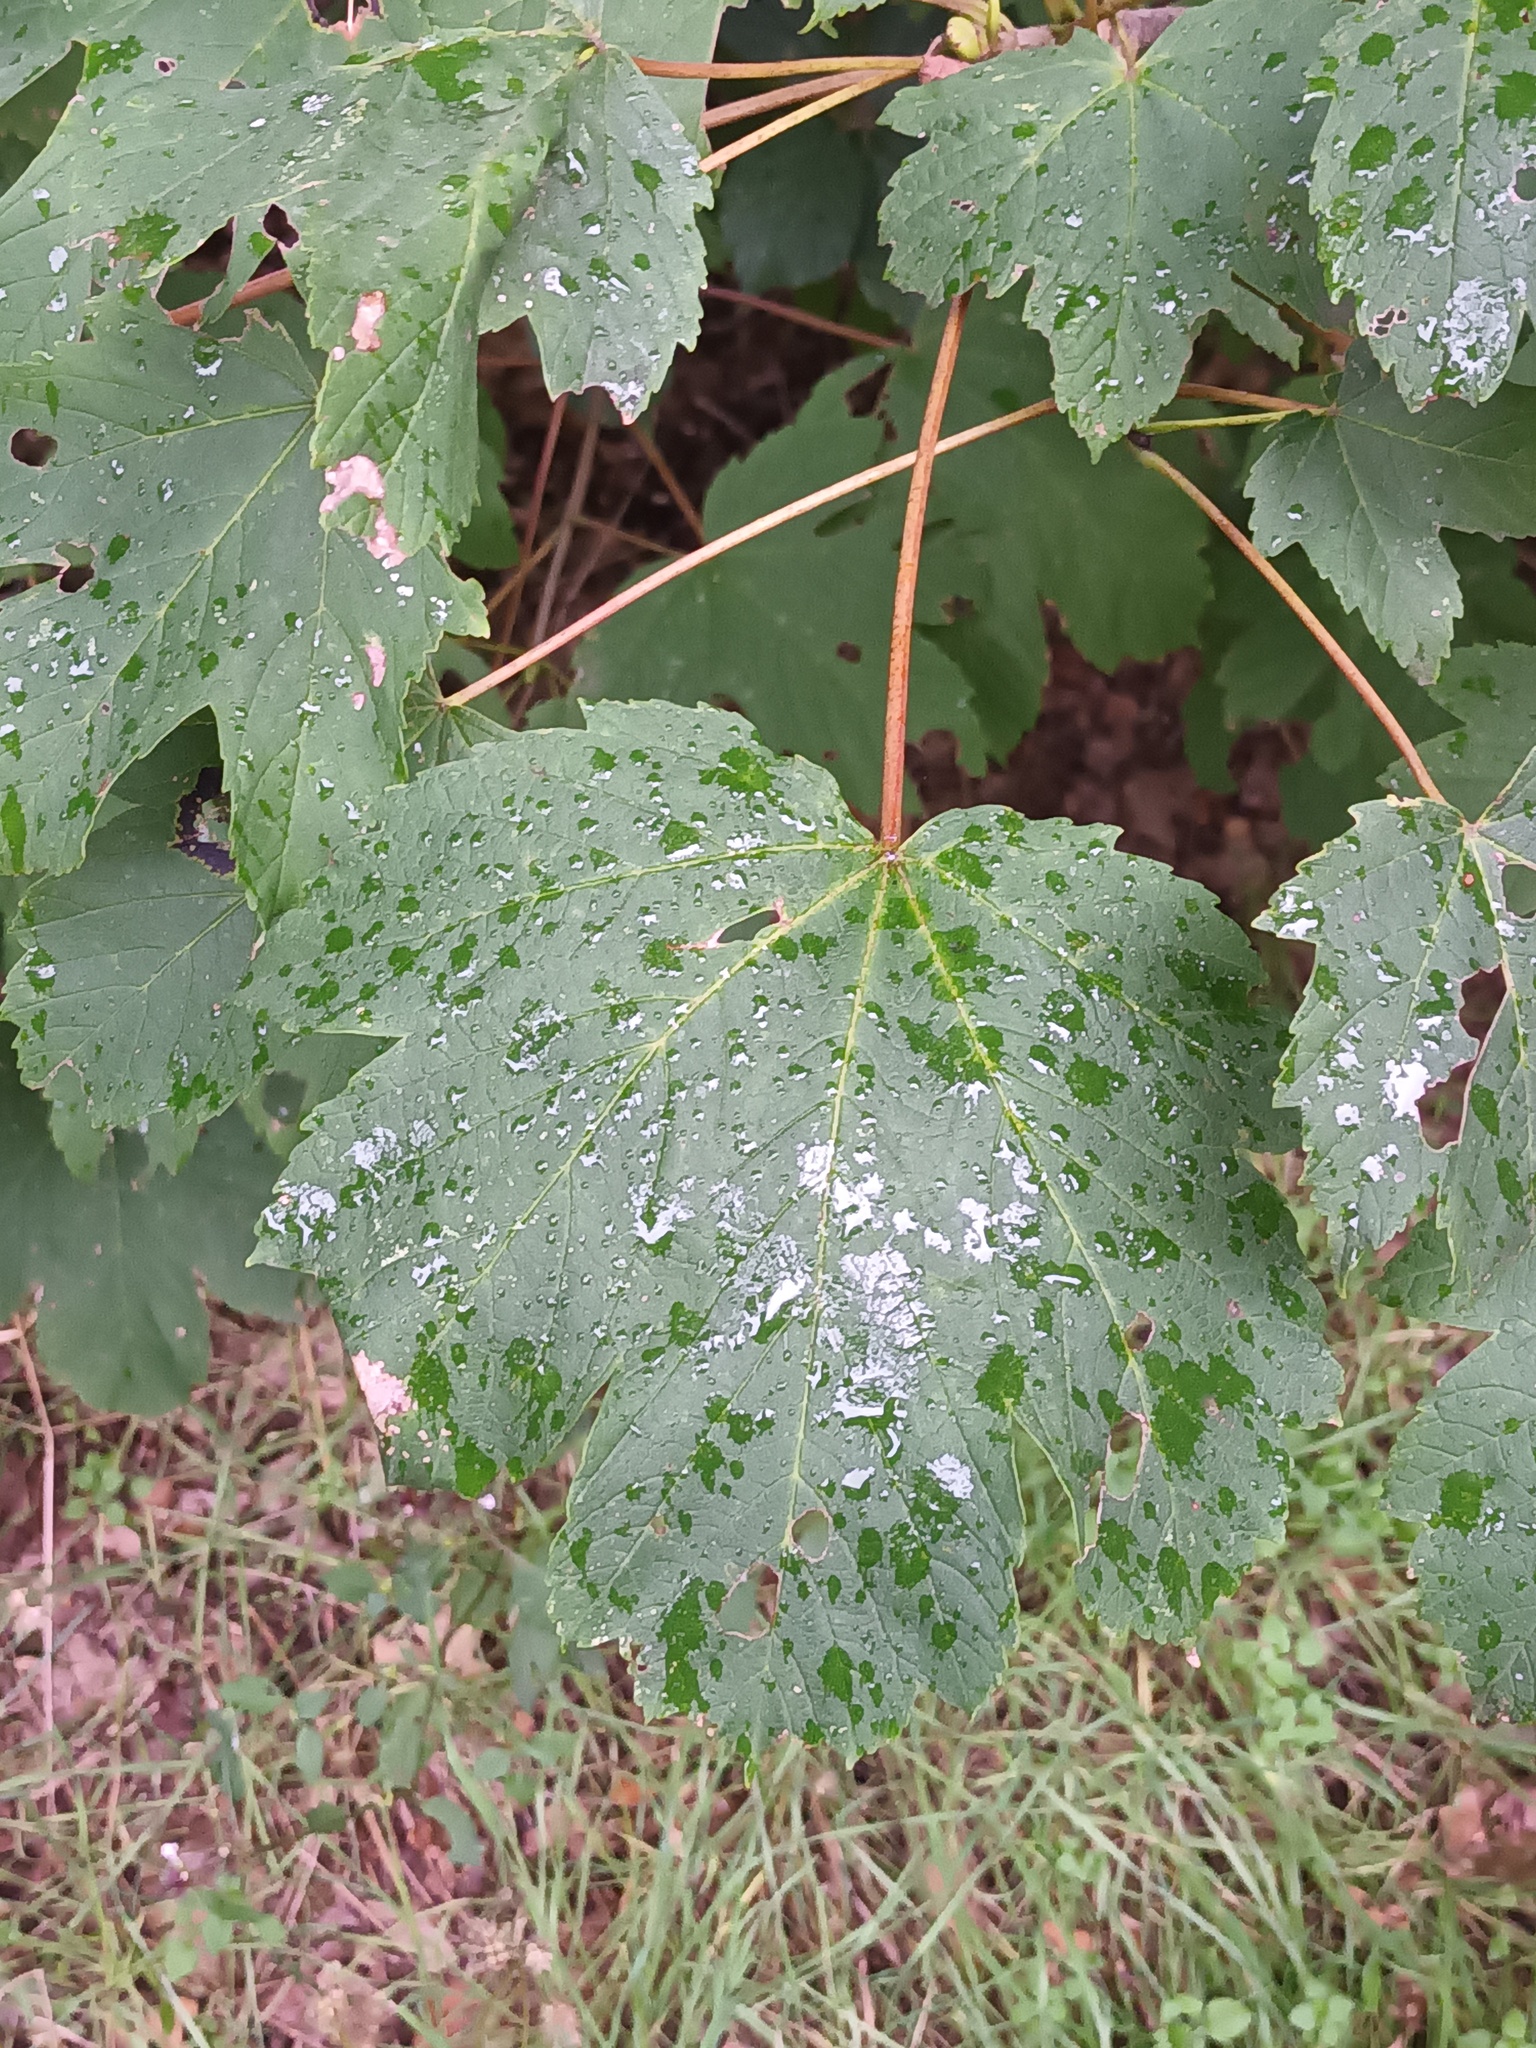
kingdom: Plantae
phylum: Tracheophyta
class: Magnoliopsida
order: Sapindales
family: Sapindaceae
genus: Acer
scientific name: Acer pseudoplatanus
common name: Sycamore
